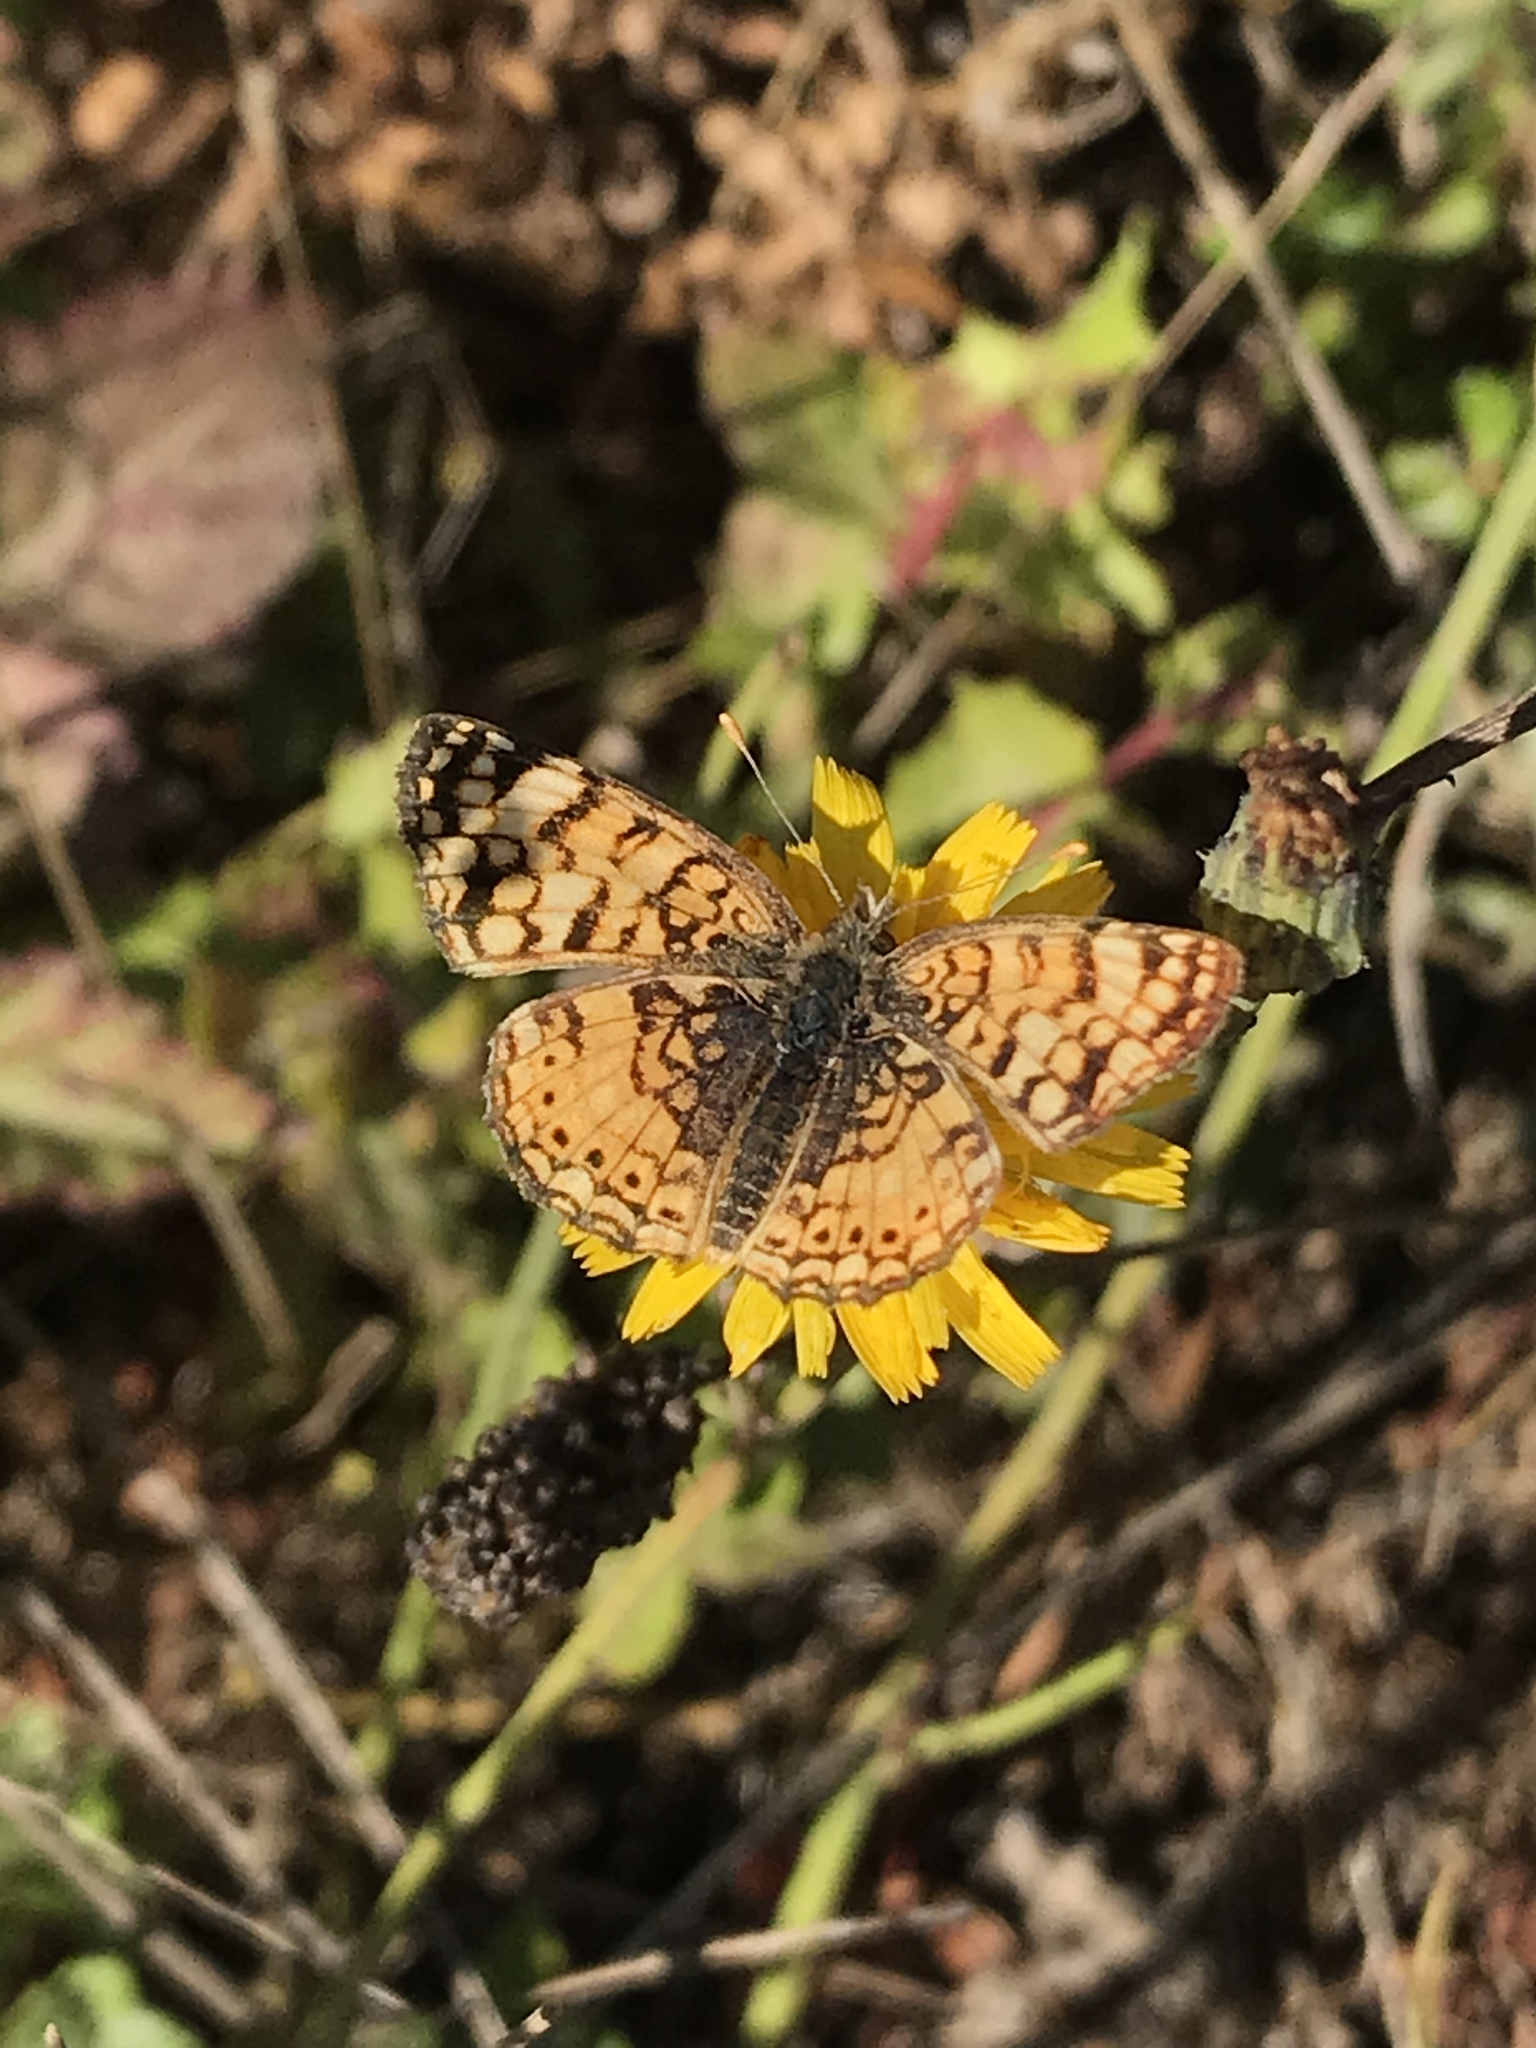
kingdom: Animalia
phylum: Arthropoda
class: Insecta
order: Lepidoptera
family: Nymphalidae
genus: Eresia
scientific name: Eresia aveyrona
